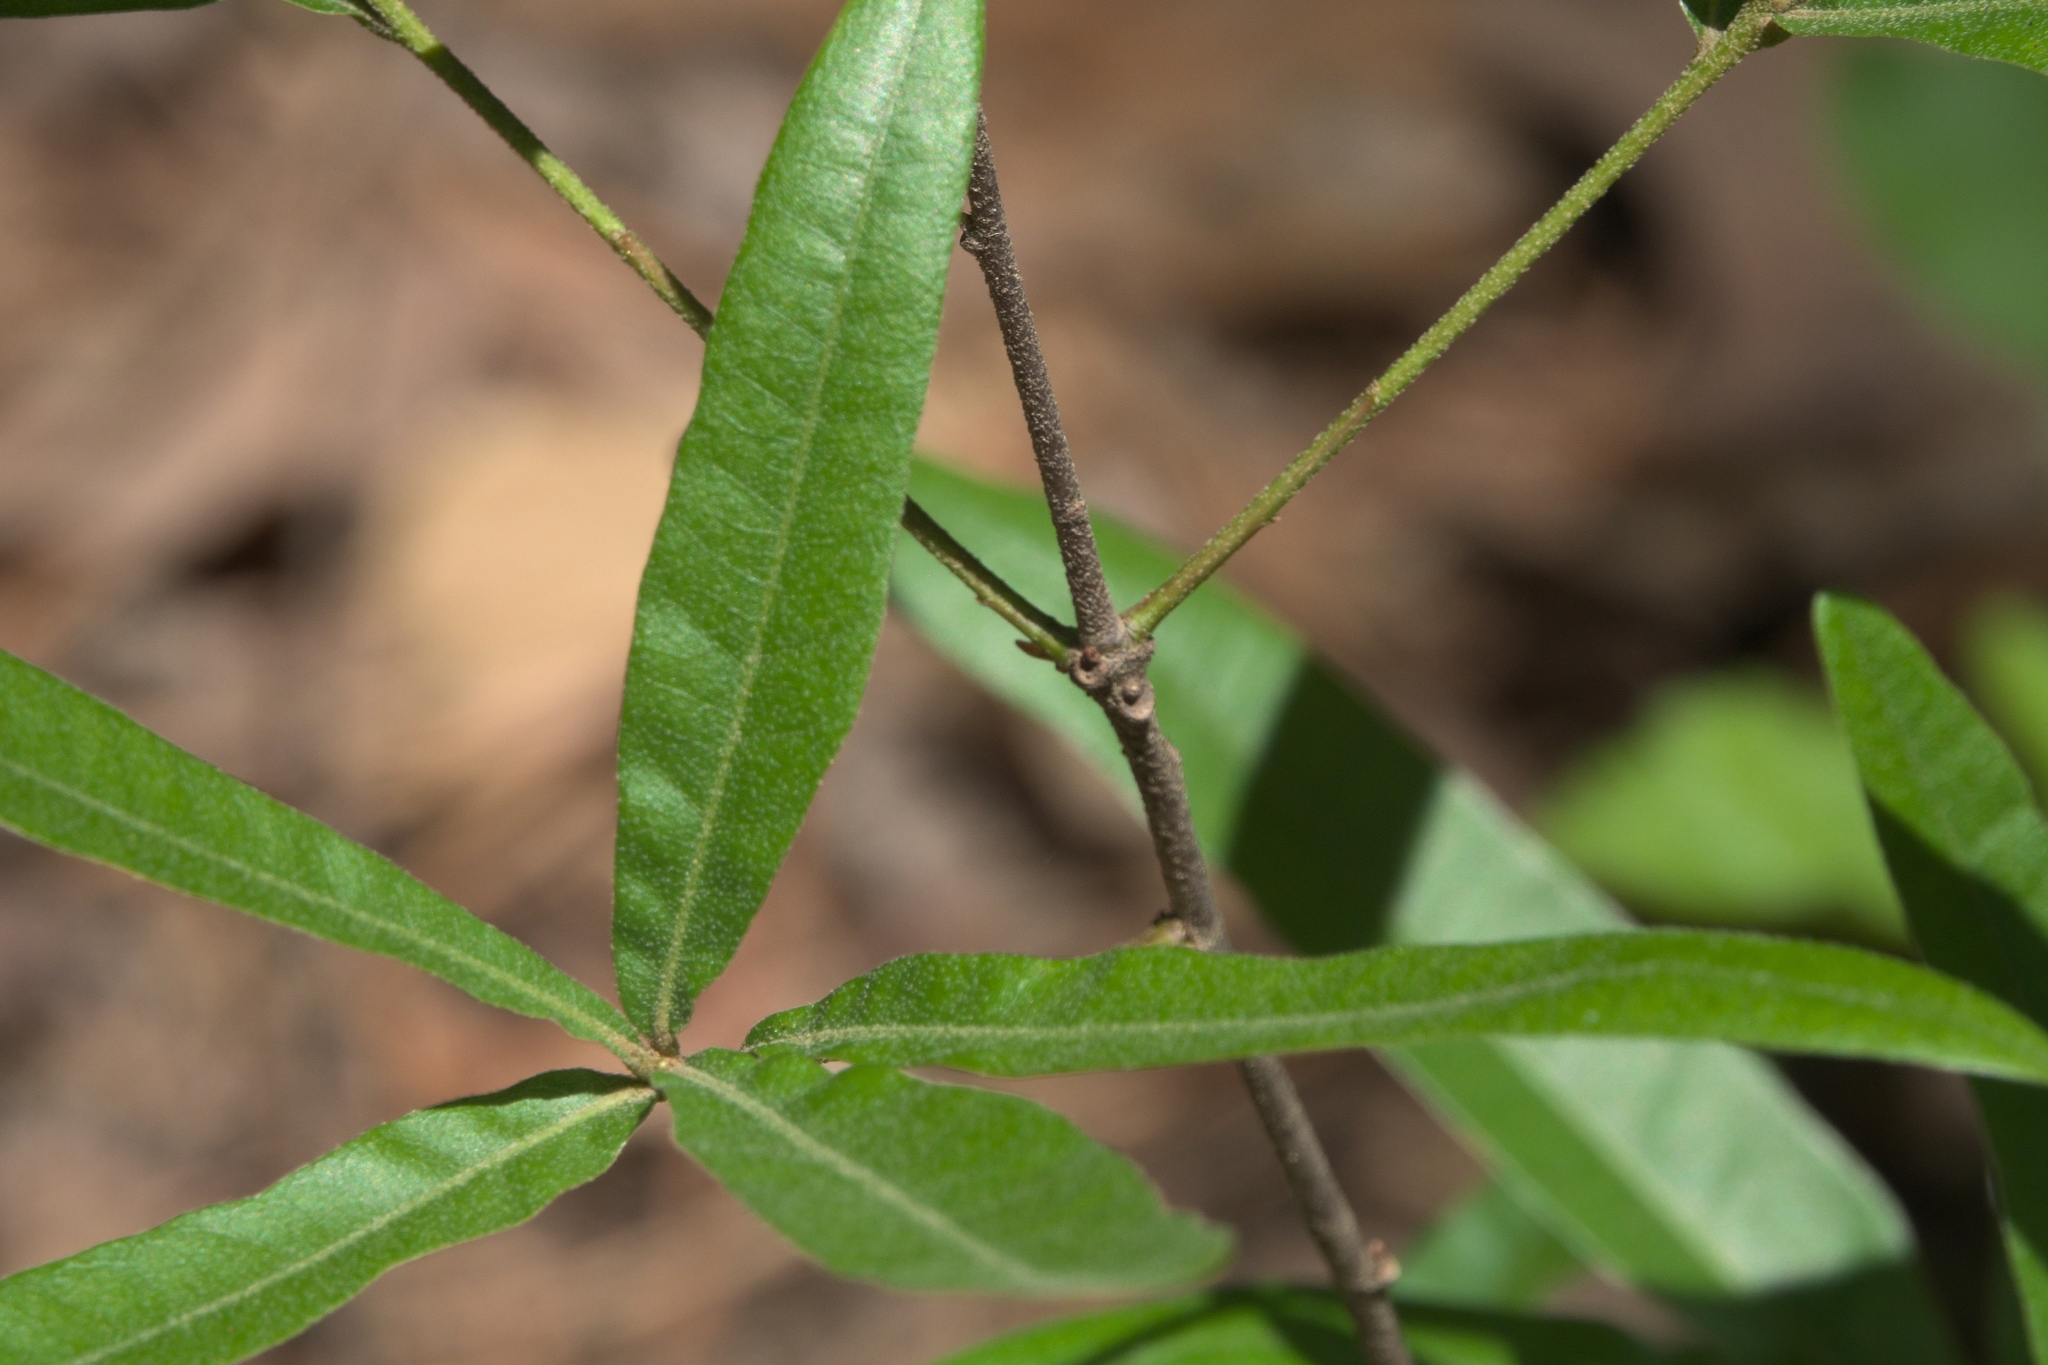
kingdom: Plantae
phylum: Tracheophyta
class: Magnoliopsida
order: Fagales
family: Fagaceae
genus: Quercus
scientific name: Quercus phellos
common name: Willow oak
